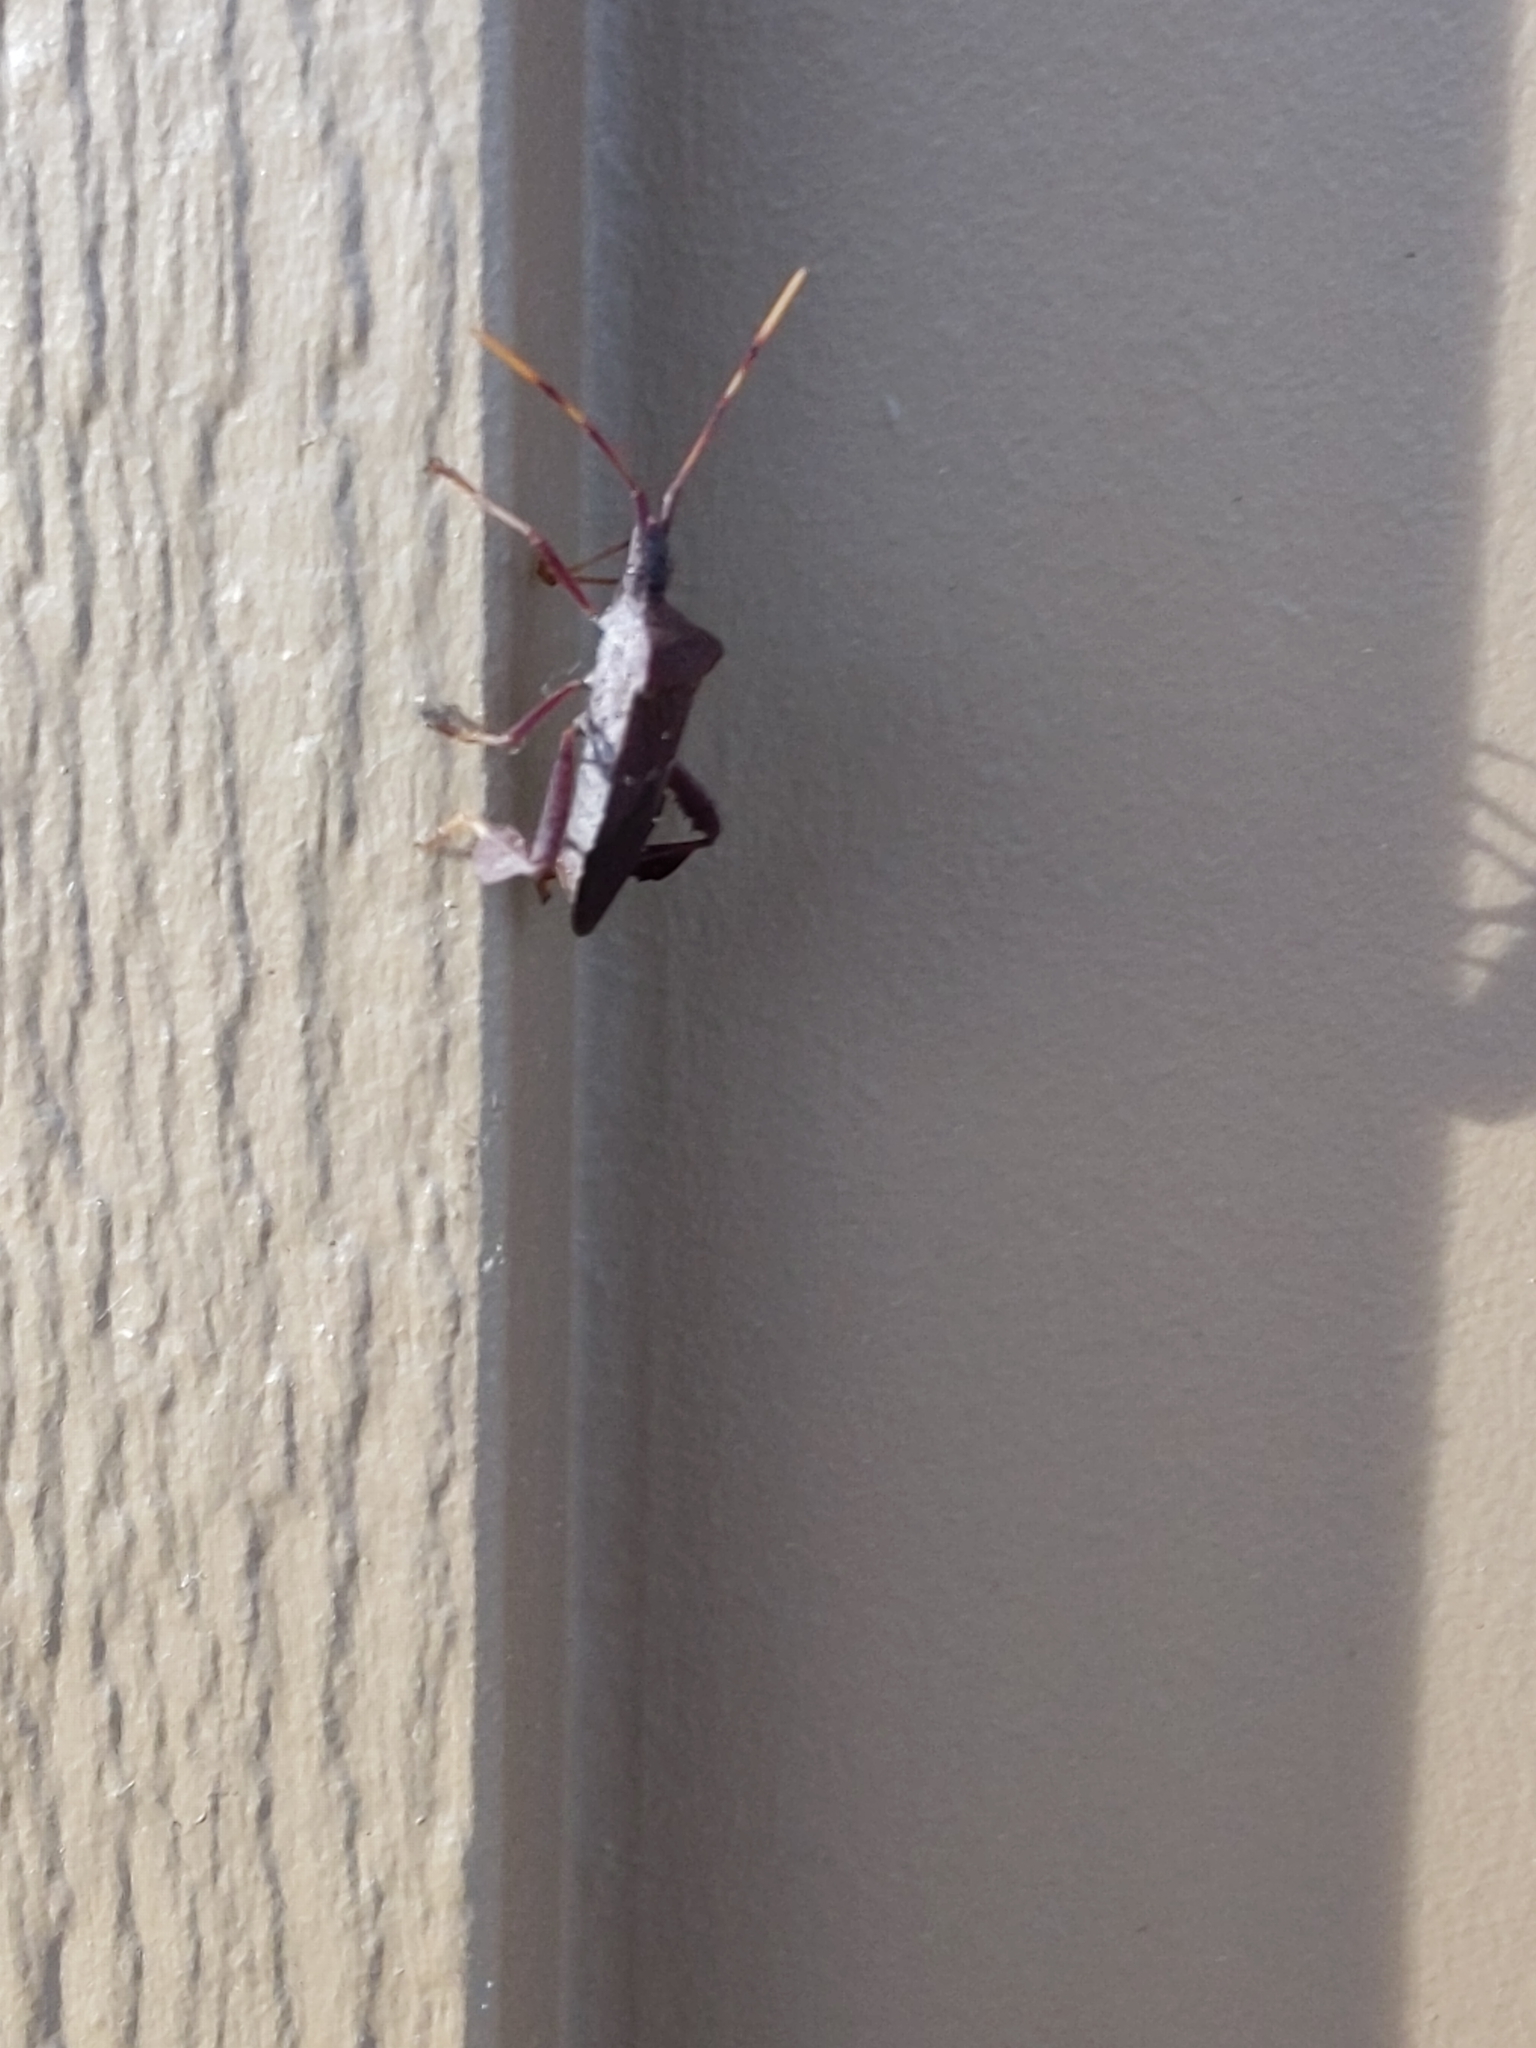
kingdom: Animalia
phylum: Arthropoda
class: Insecta
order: Hemiptera
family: Coreidae
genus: Leptoglossus
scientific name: Leptoglossus oppositus
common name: Northern leaf-footed bug
